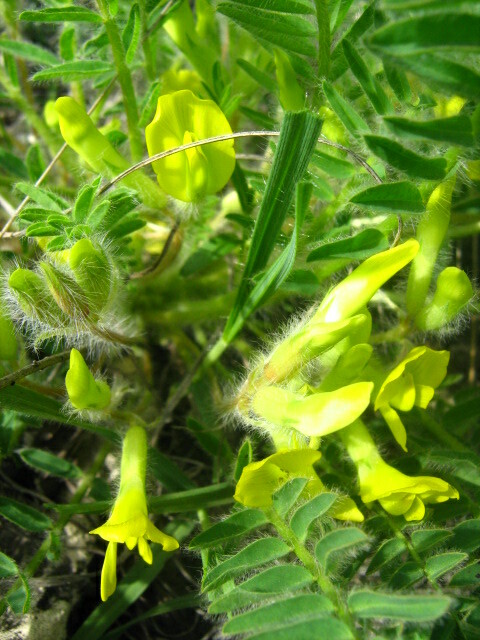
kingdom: Plantae
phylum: Tracheophyta
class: Magnoliopsida
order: Fabales
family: Fabaceae
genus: Astragalus
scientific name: Astragalus buchtormensis
